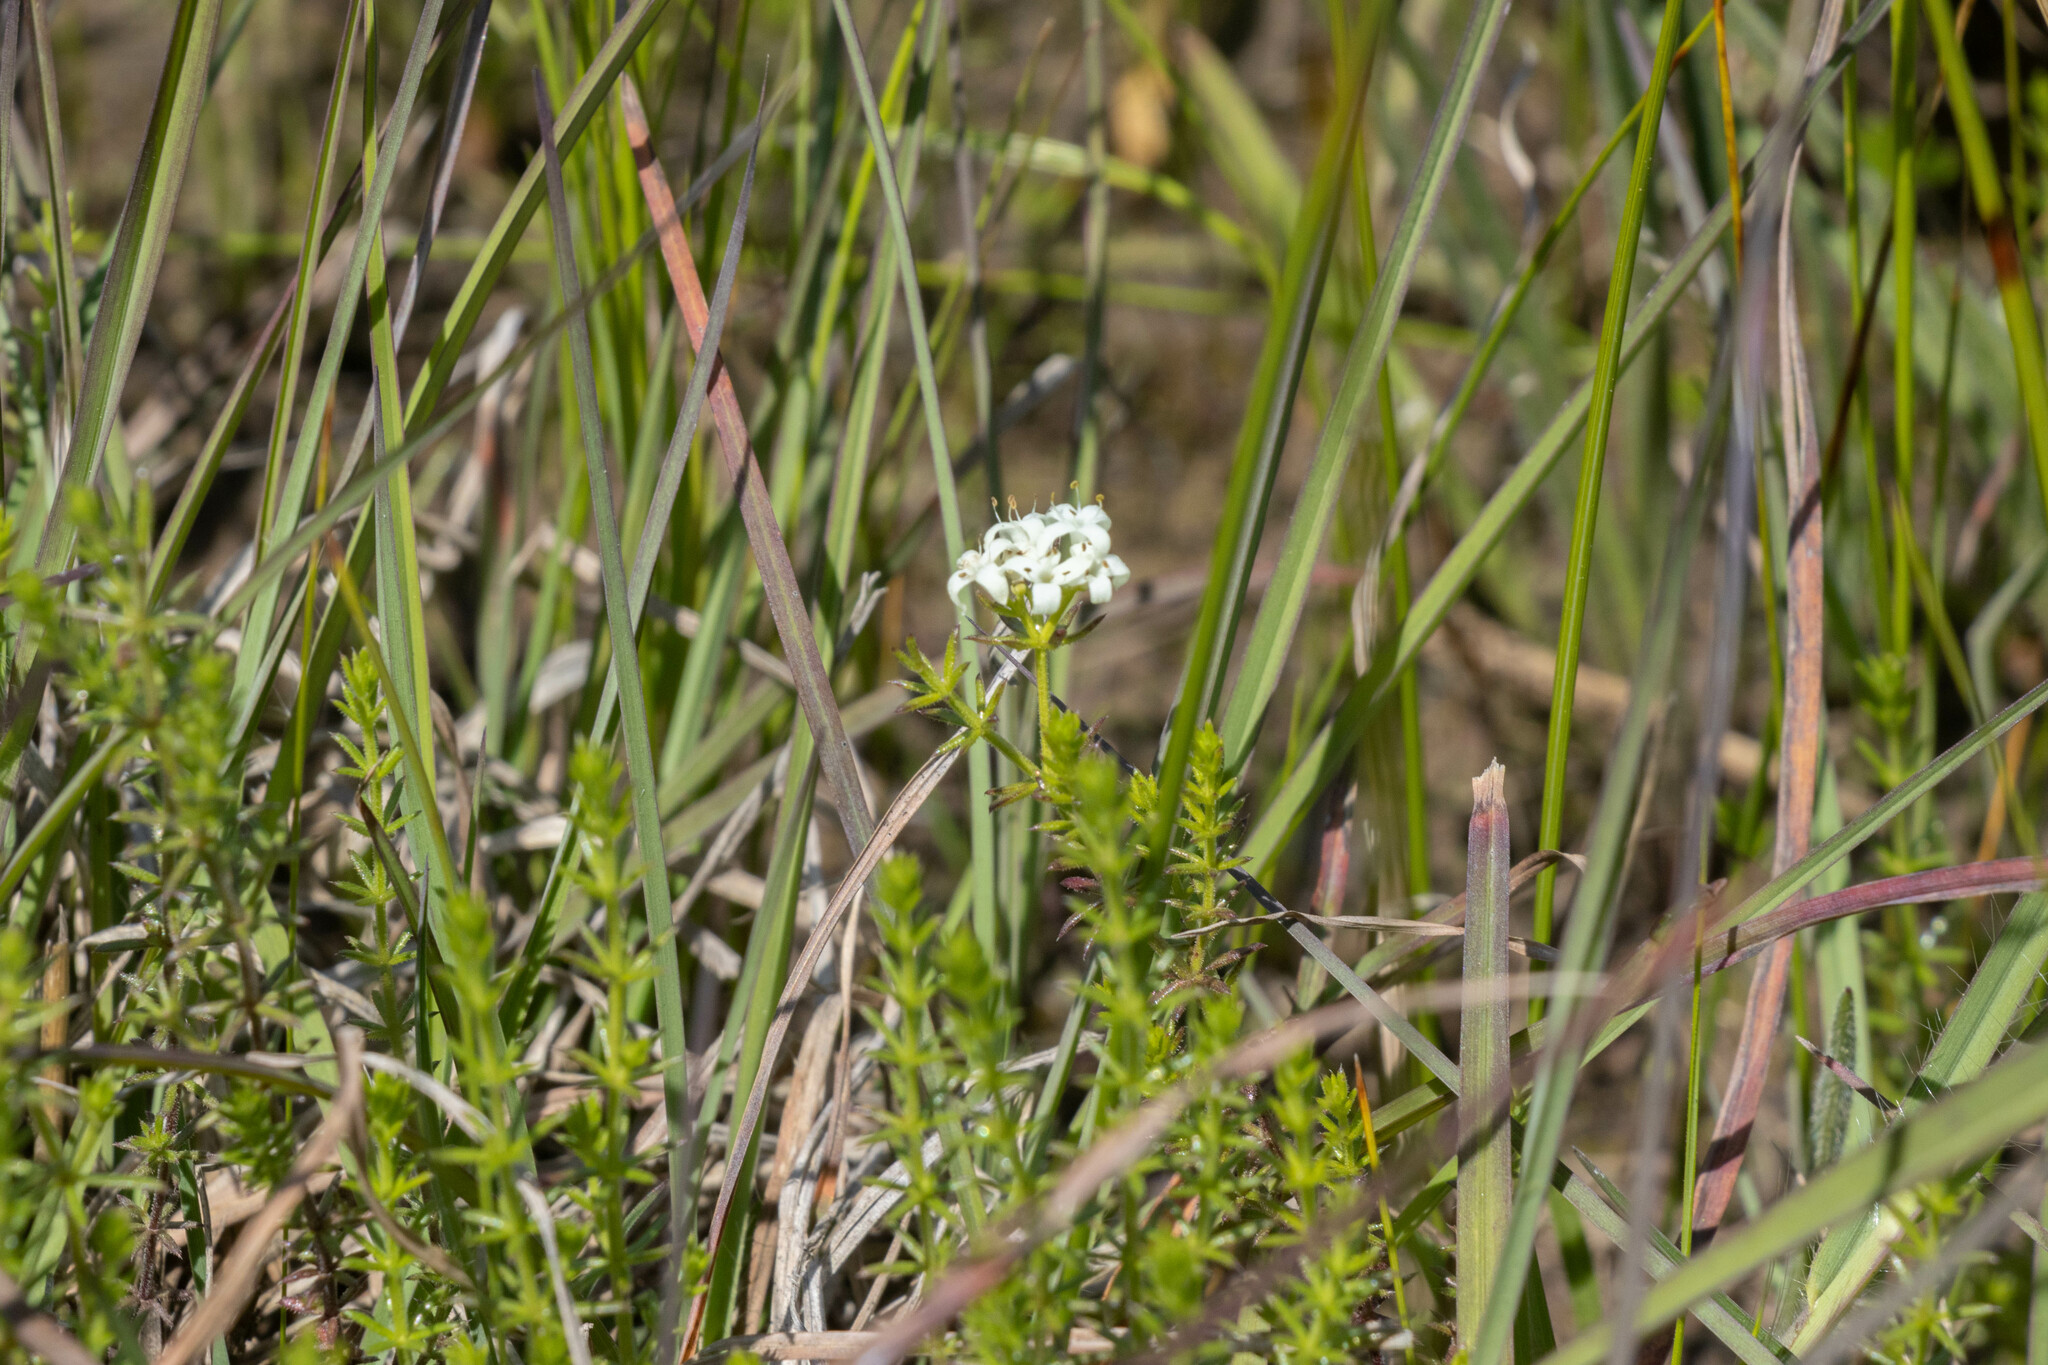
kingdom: Plantae
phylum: Tracheophyta
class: Magnoliopsida
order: Gentianales
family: Rubiaceae
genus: Asperula
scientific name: Asperula conferta
